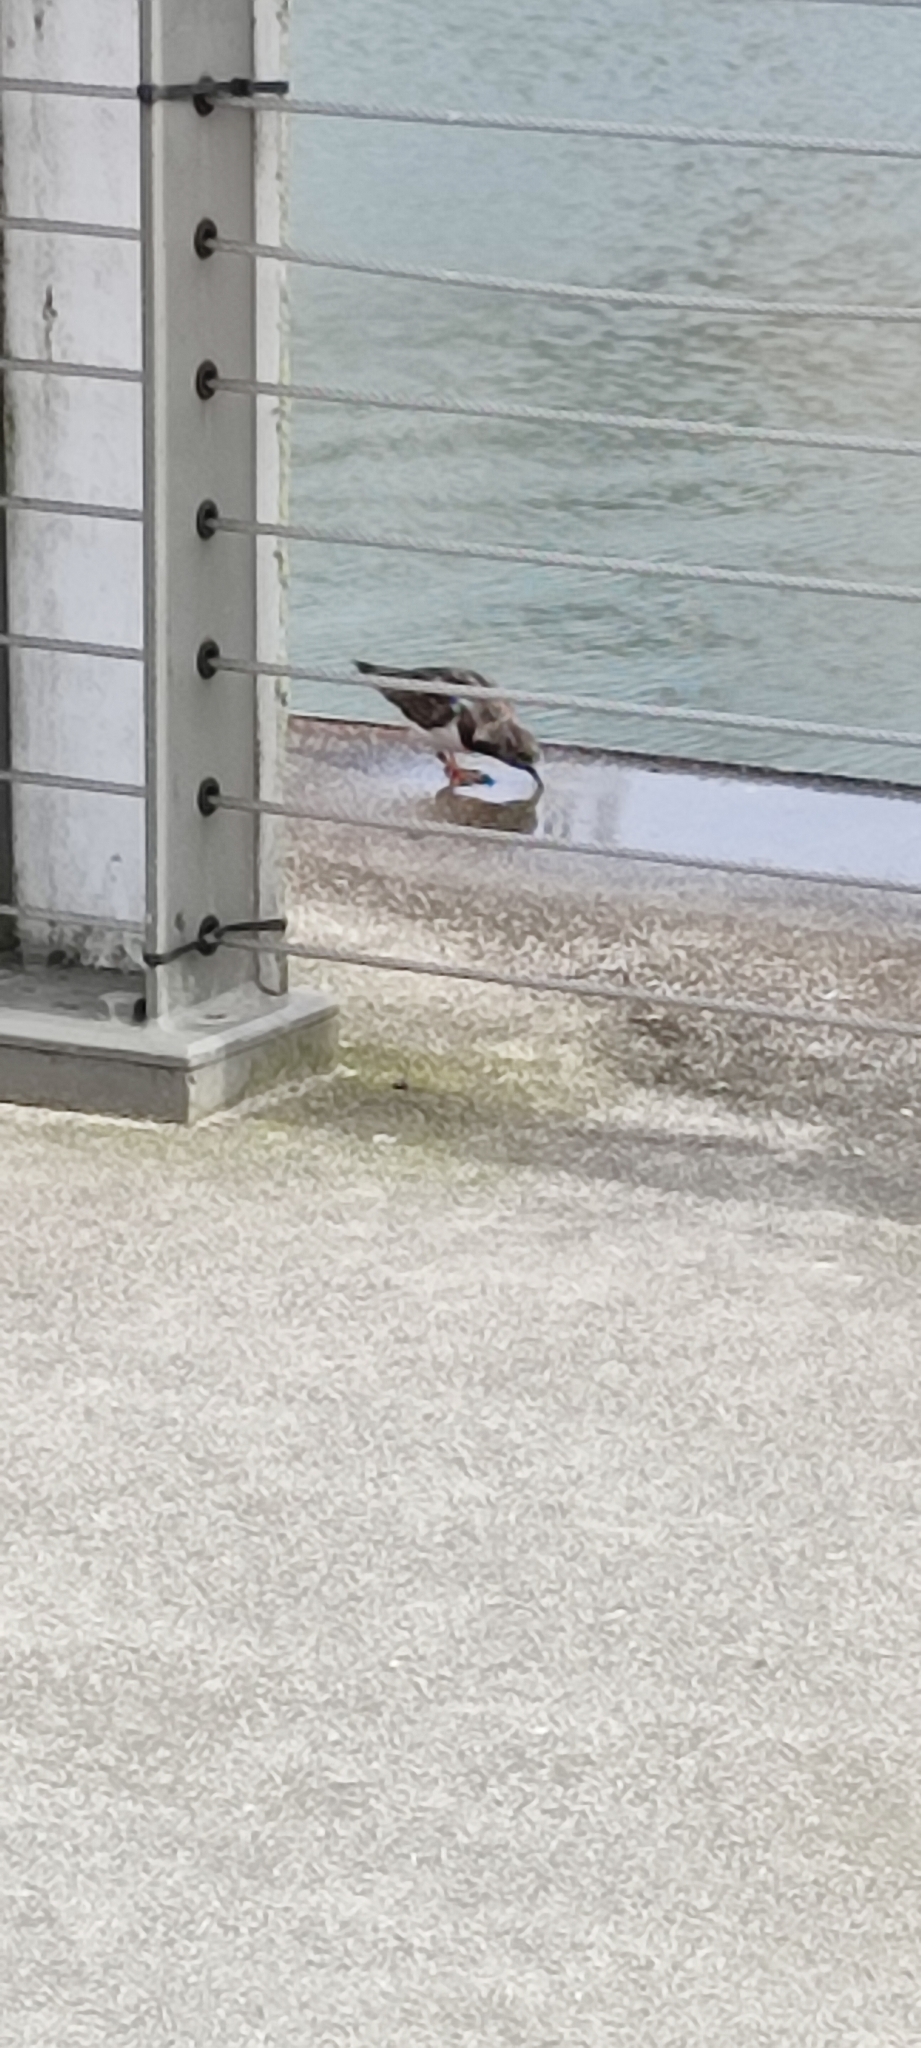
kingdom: Animalia
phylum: Chordata
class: Aves
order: Charadriiformes
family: Scolopacidae
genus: Arenaria
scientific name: Arenaria interpres
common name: Ruddy turnstone
